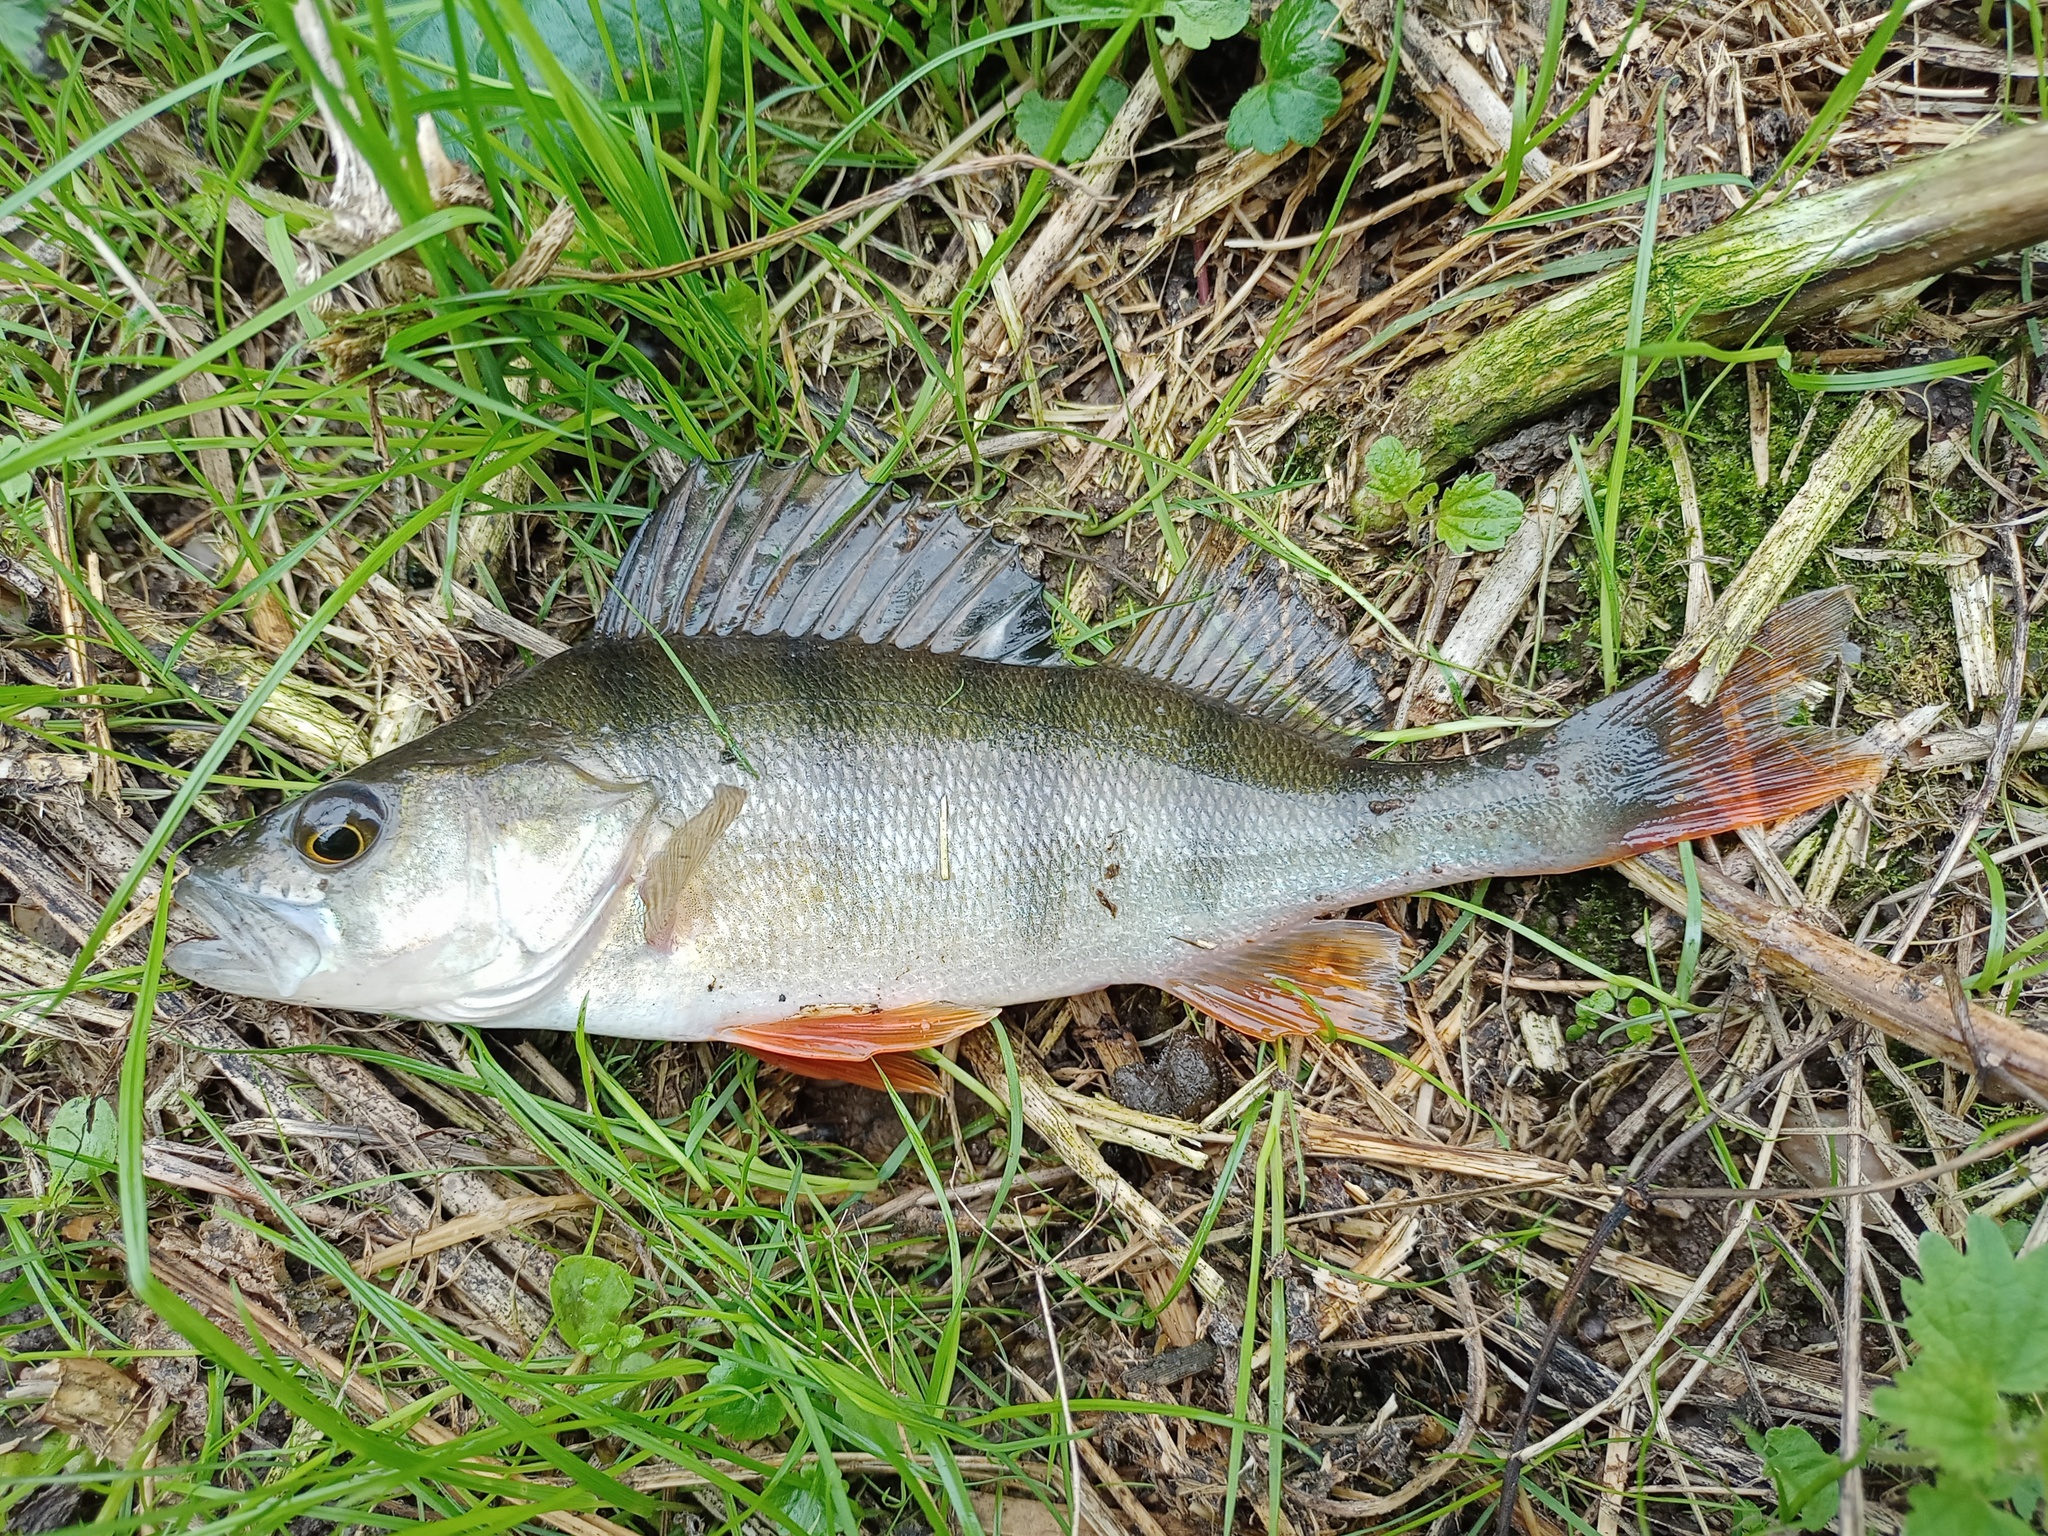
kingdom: Animalia
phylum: Chordata
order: Perciformes
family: Percidae
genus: Perca
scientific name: Perca fluviatilis
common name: Perch
